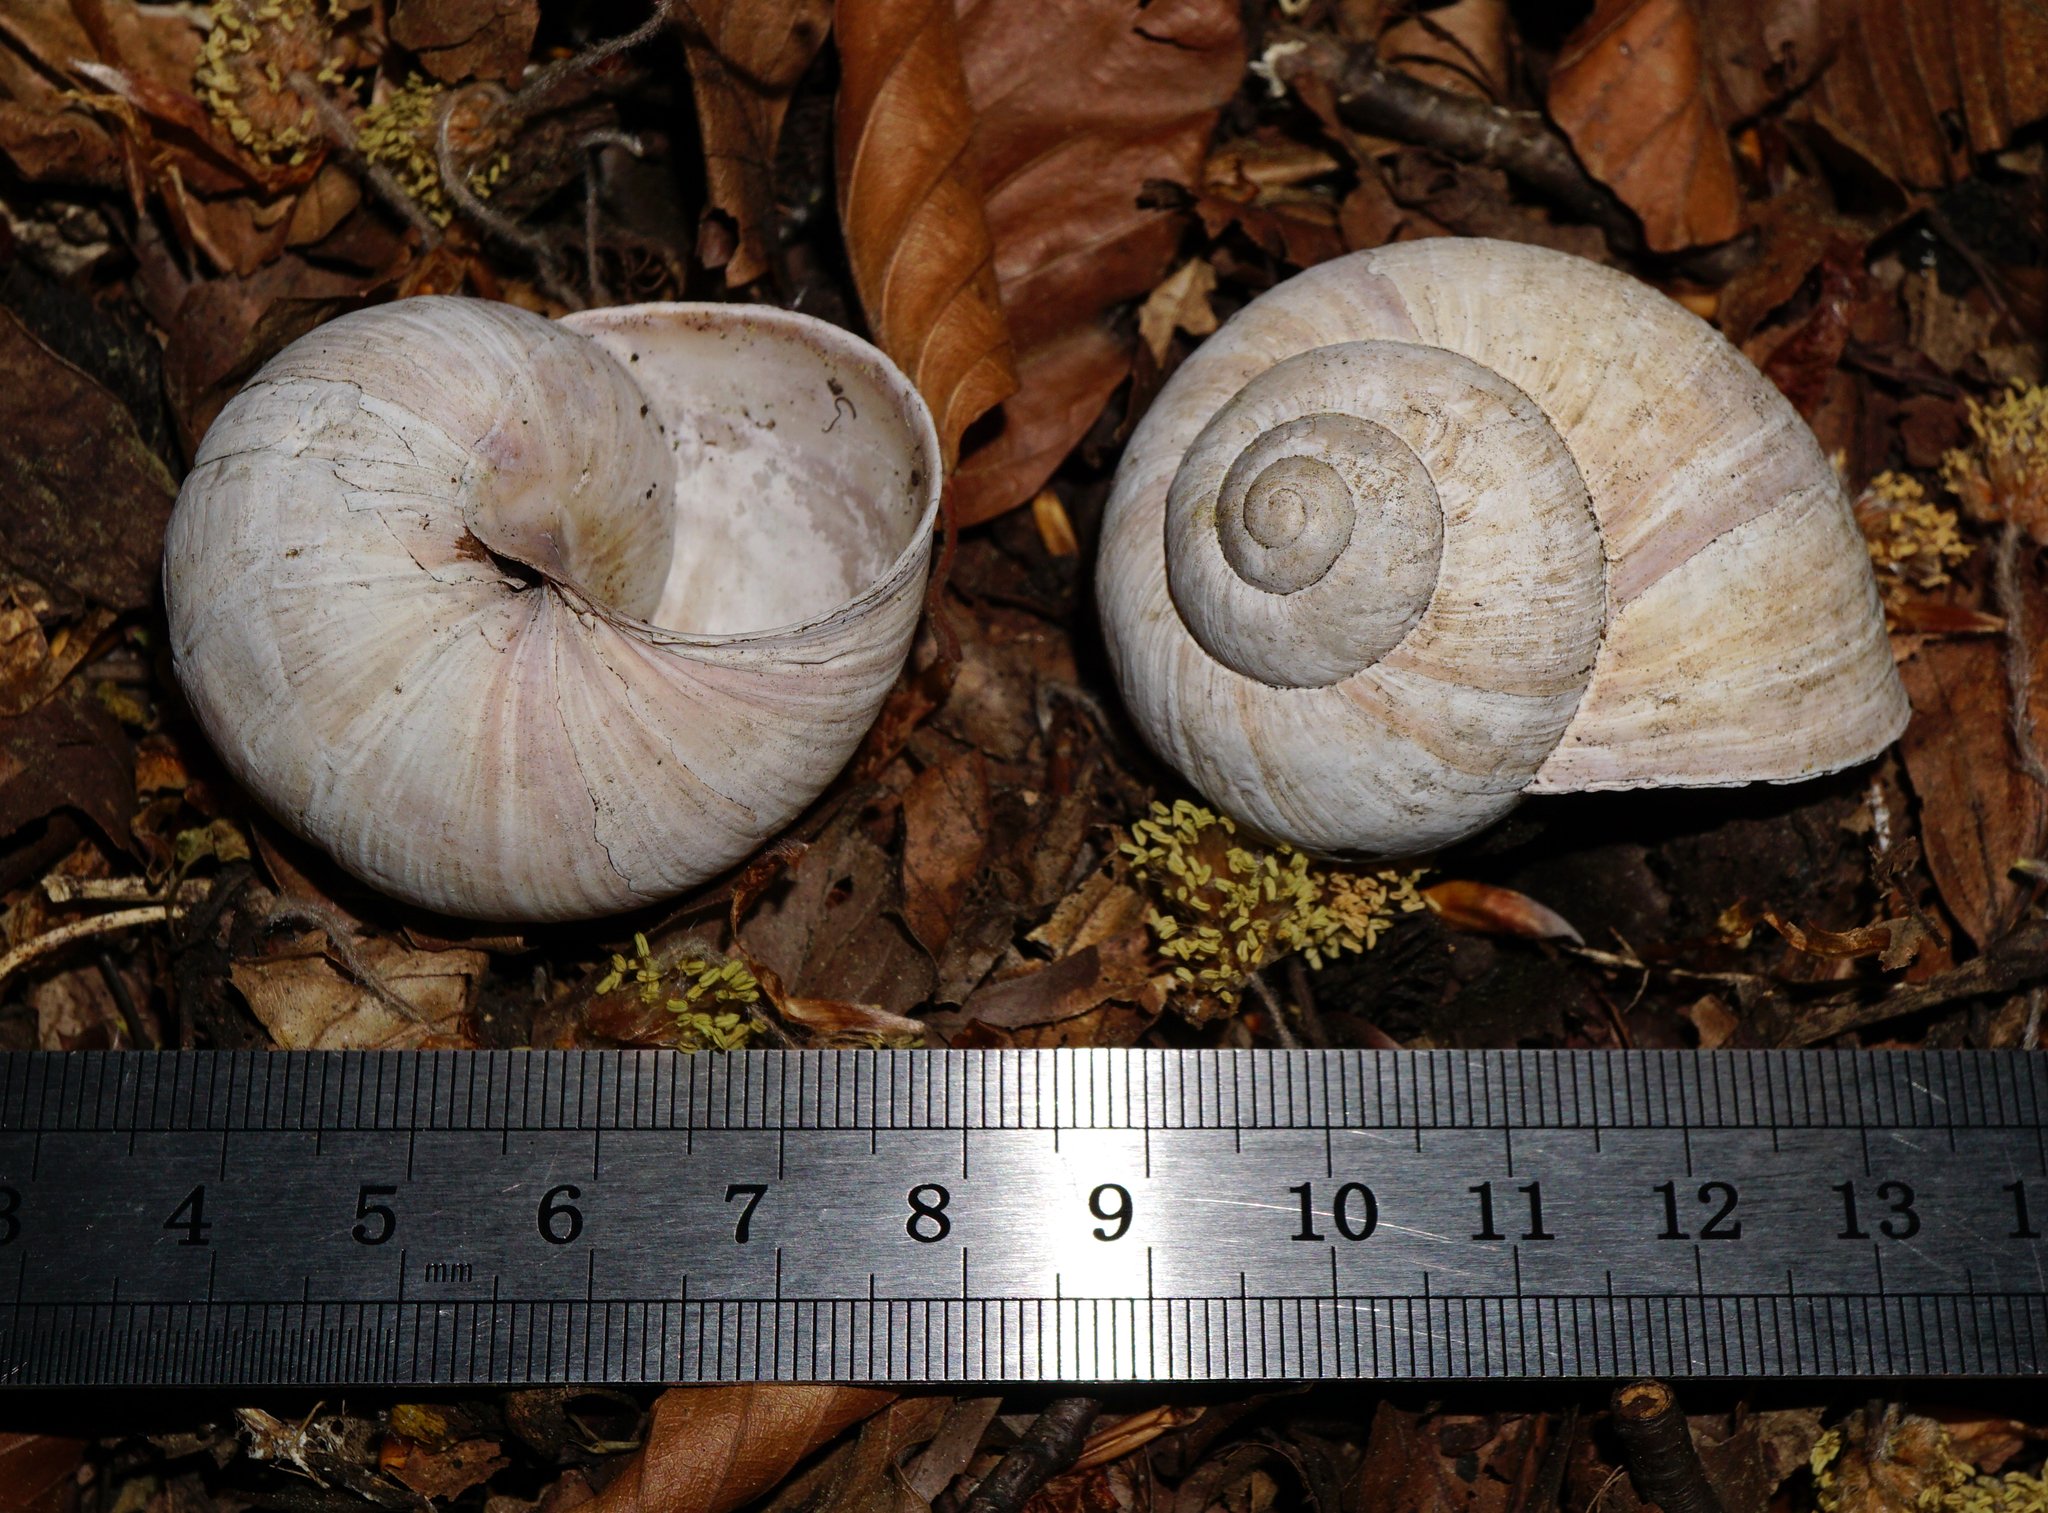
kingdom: Animalia
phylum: Mollusca
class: Gastropoda
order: Stylommatophora
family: Helicidae
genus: Helix
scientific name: Helix pomatia
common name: Roman snail
